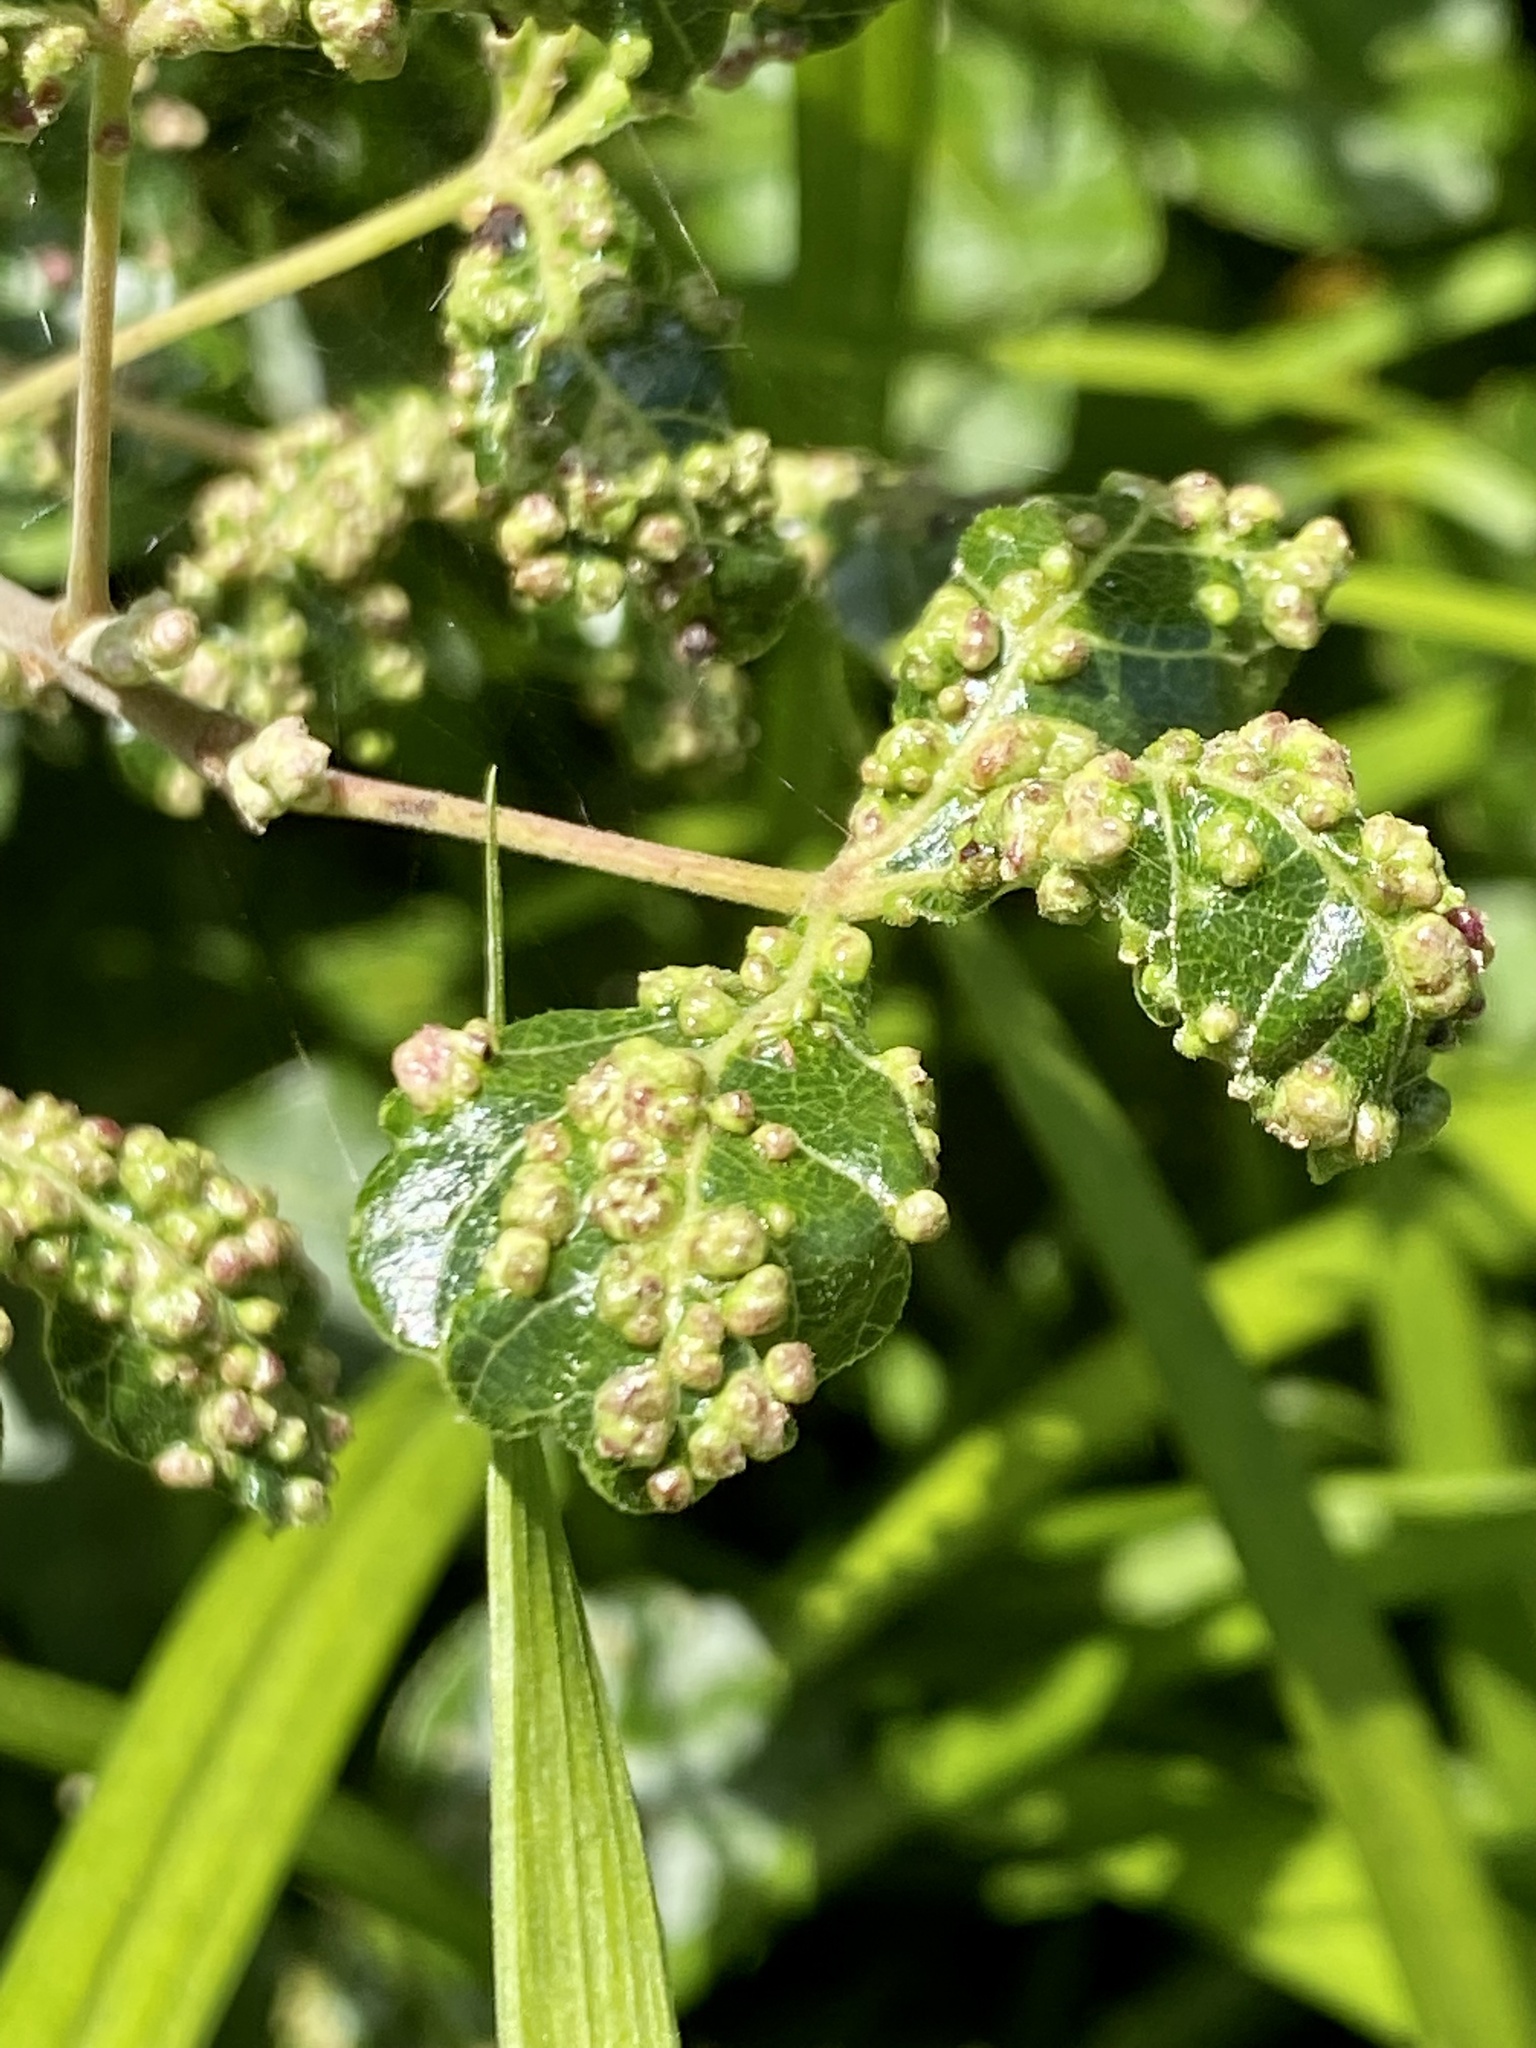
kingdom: Animalia
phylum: Arthropoda
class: Arachnida
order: Trombidiformes
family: Eriophyidae
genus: Aculops
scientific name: Aculops
